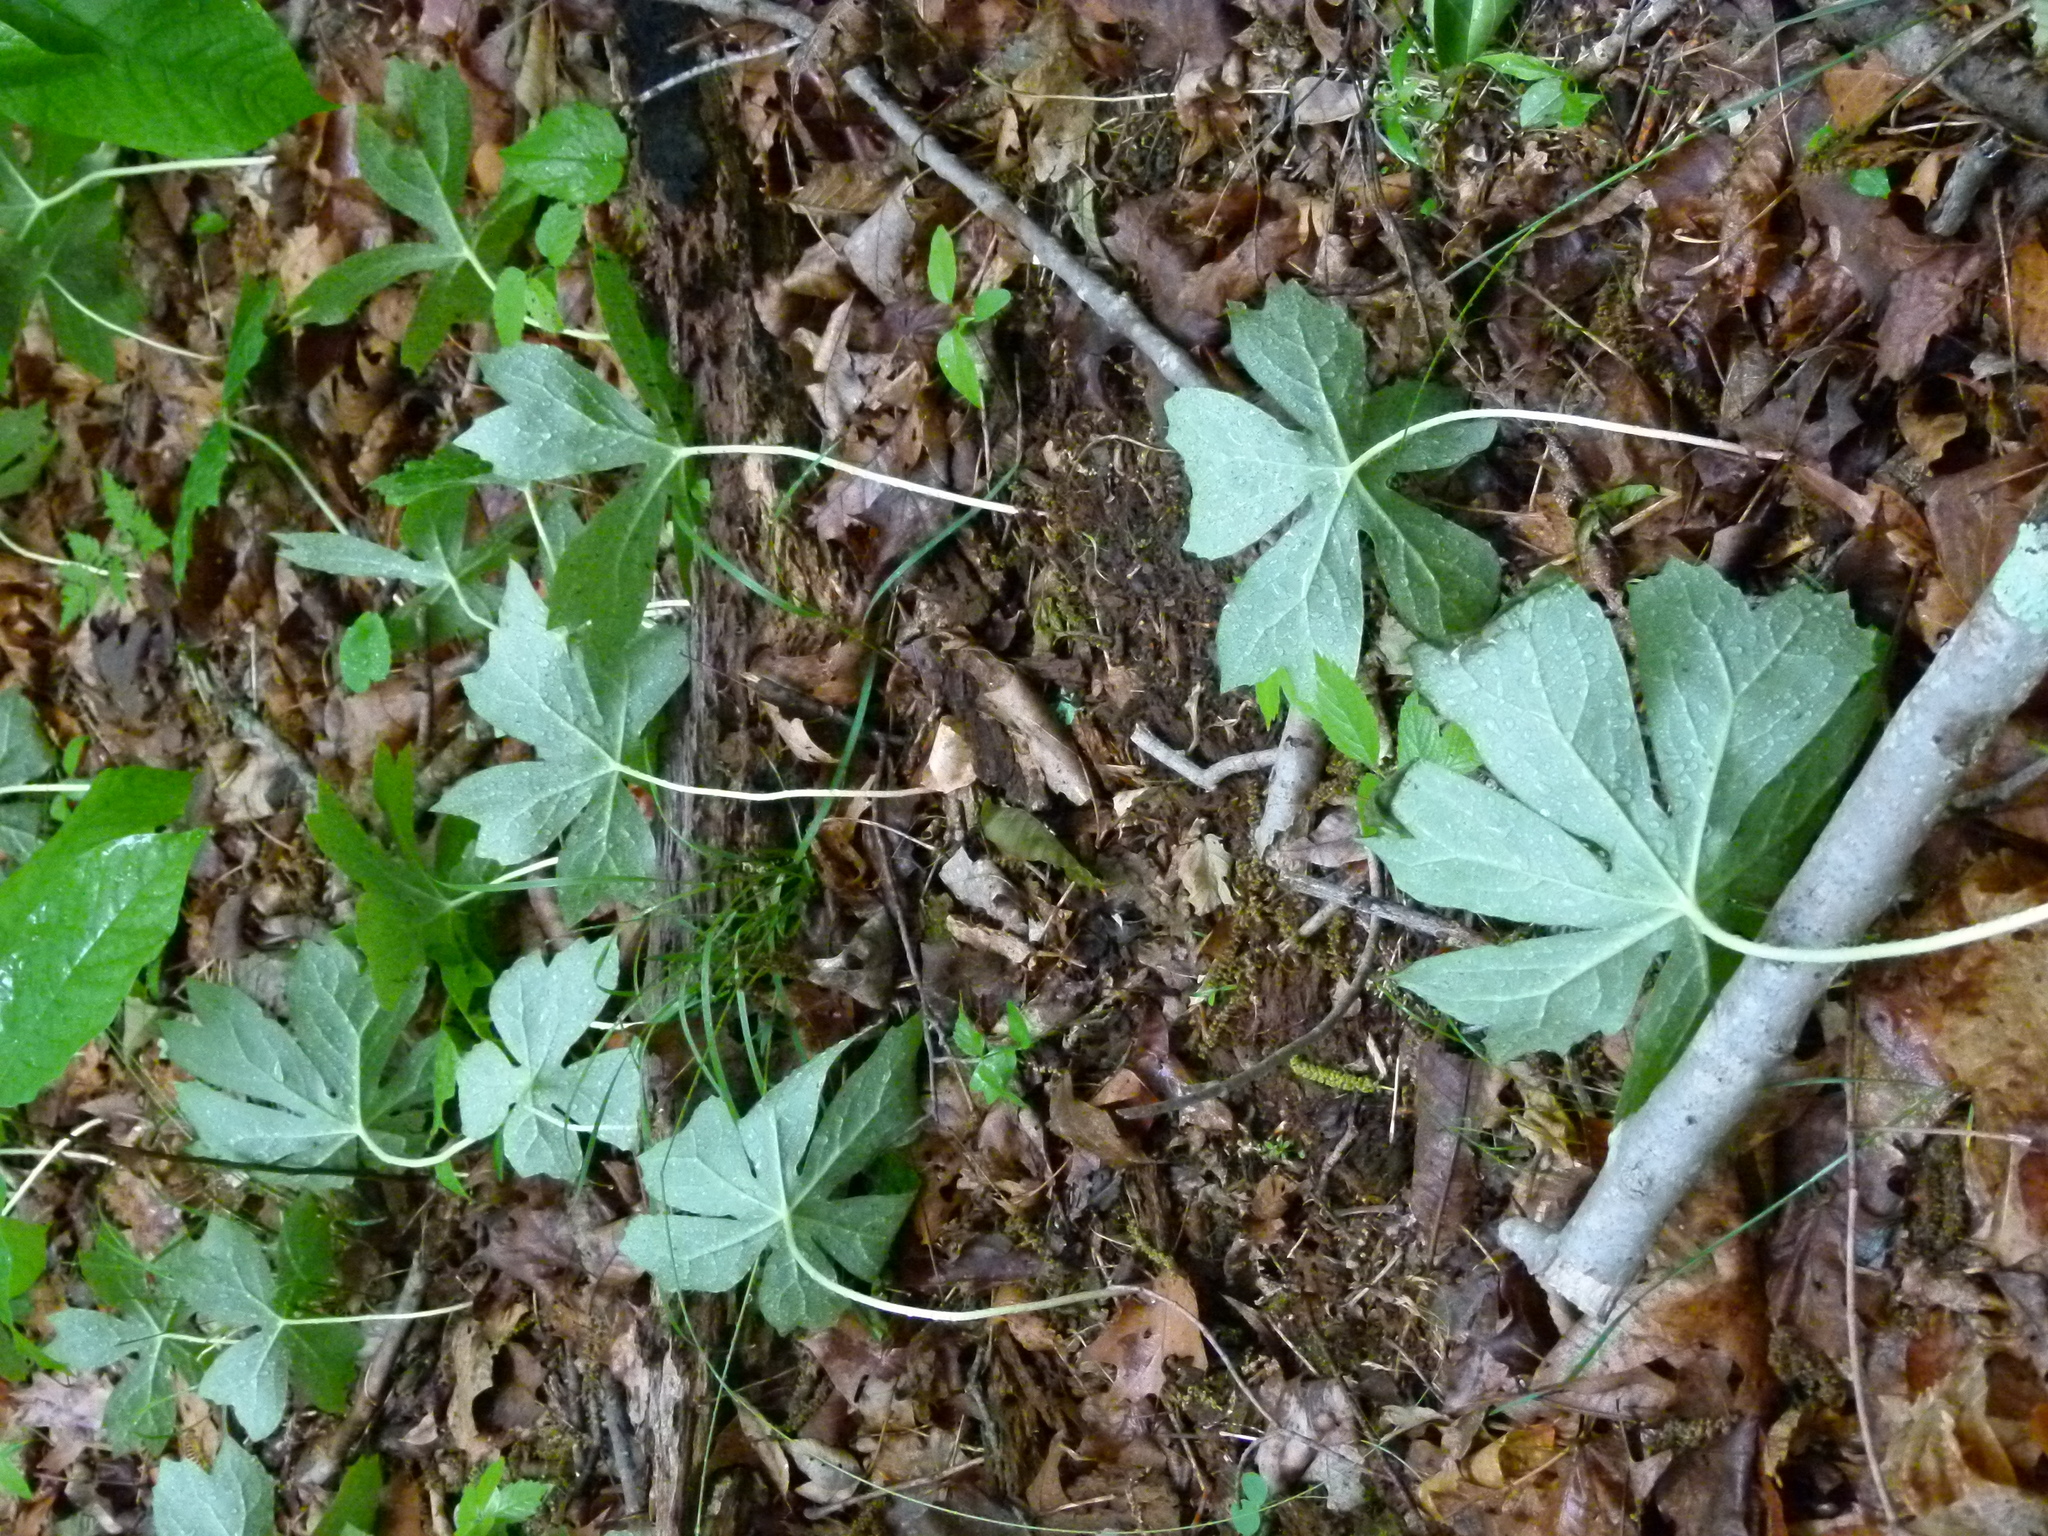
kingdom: Plantae
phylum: Tracheophyta
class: Magnoliopsida
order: Ranunculales
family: Berberidaceae
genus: Podophyllum
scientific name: Podophyllum peltatum
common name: Wild mandrake
